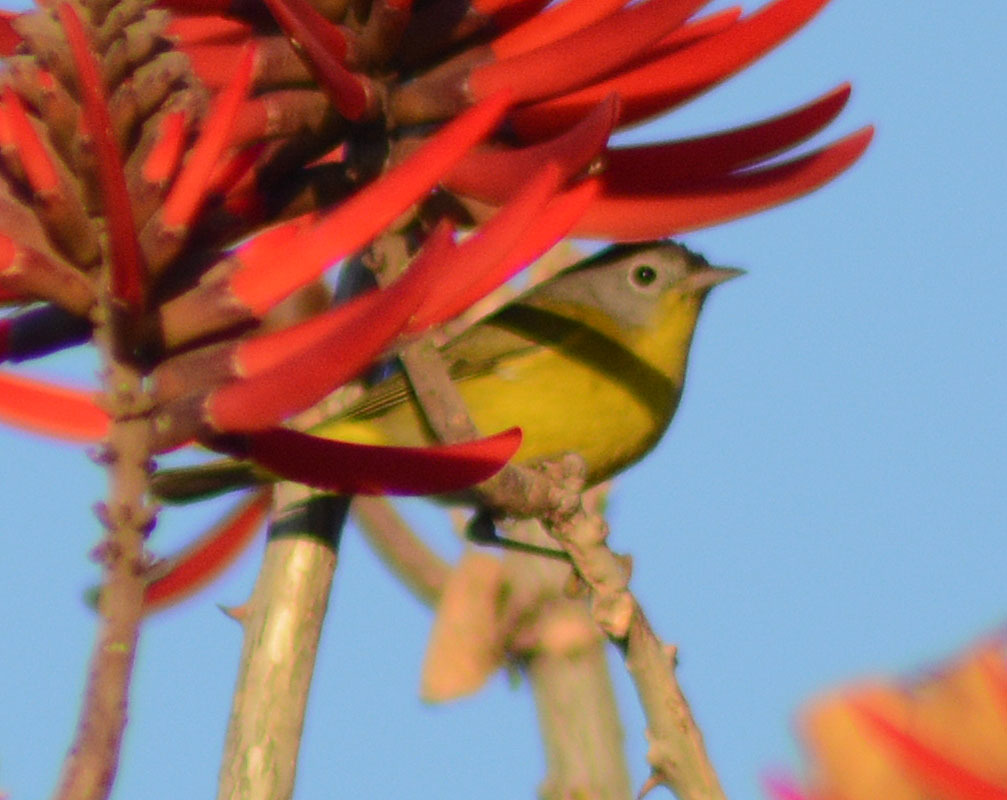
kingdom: Animalia
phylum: Chordata
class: Aves
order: Passeriformes
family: Parulidae
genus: Leiothlypis
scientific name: Leiothlypis ruficapilla
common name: Nashville warbler
